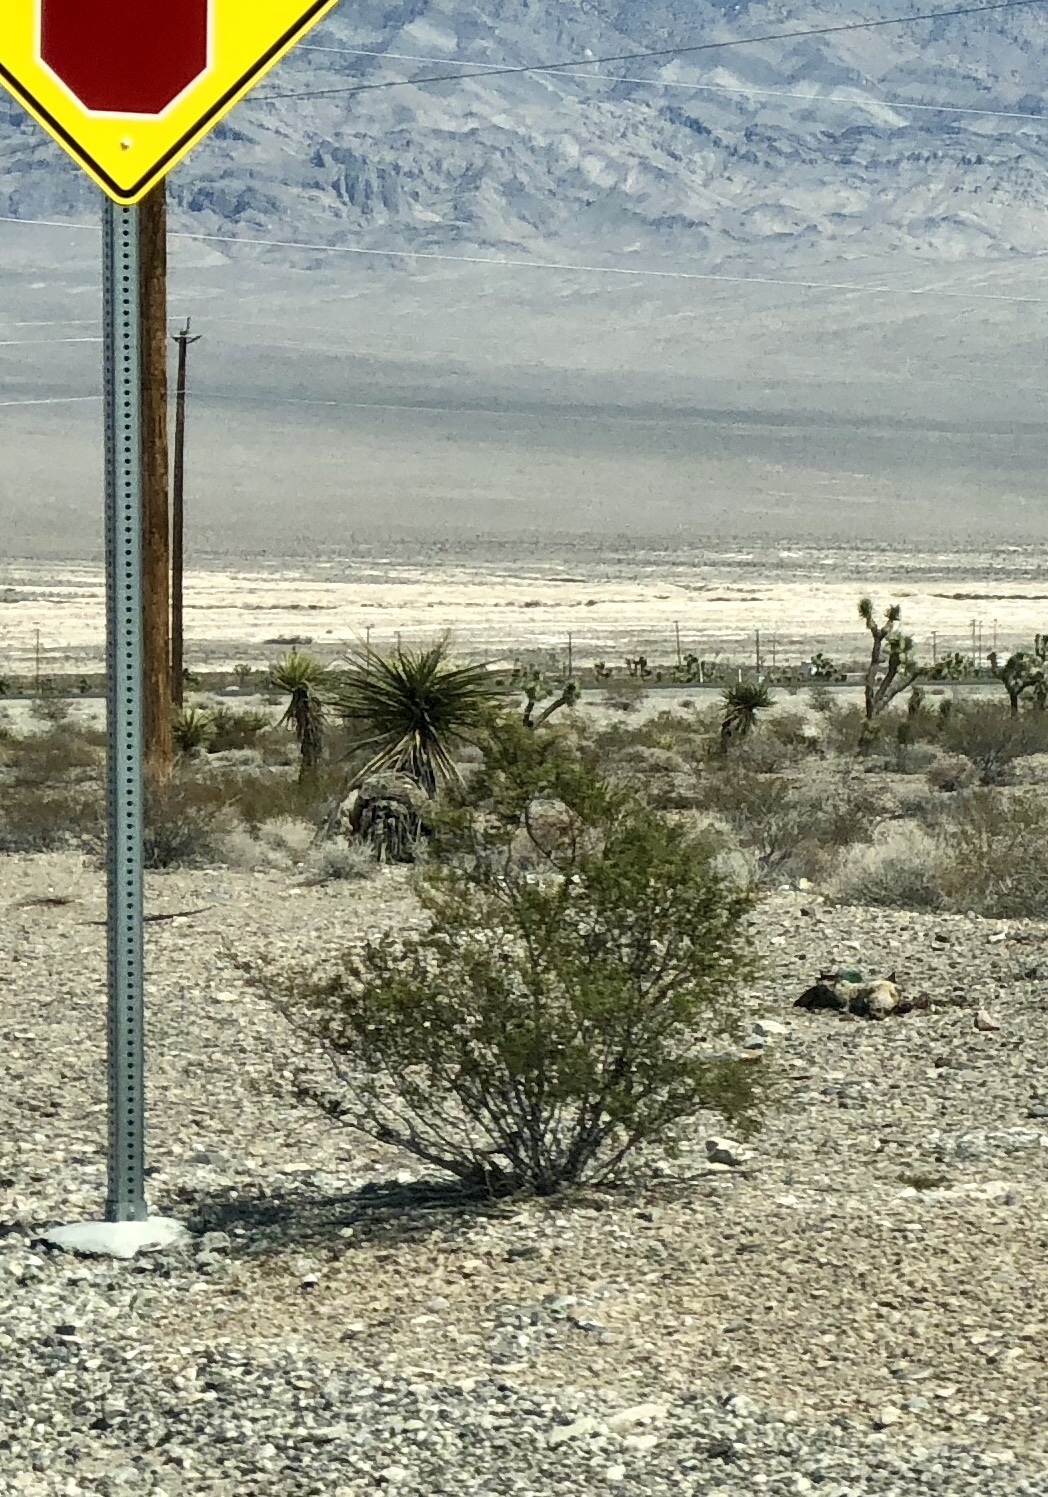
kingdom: Plantae
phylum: Tracheophyta
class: Magnoliopsida
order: Zygophyllales
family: Zygophyllaceae
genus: Larrea
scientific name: Larrea tridentata
